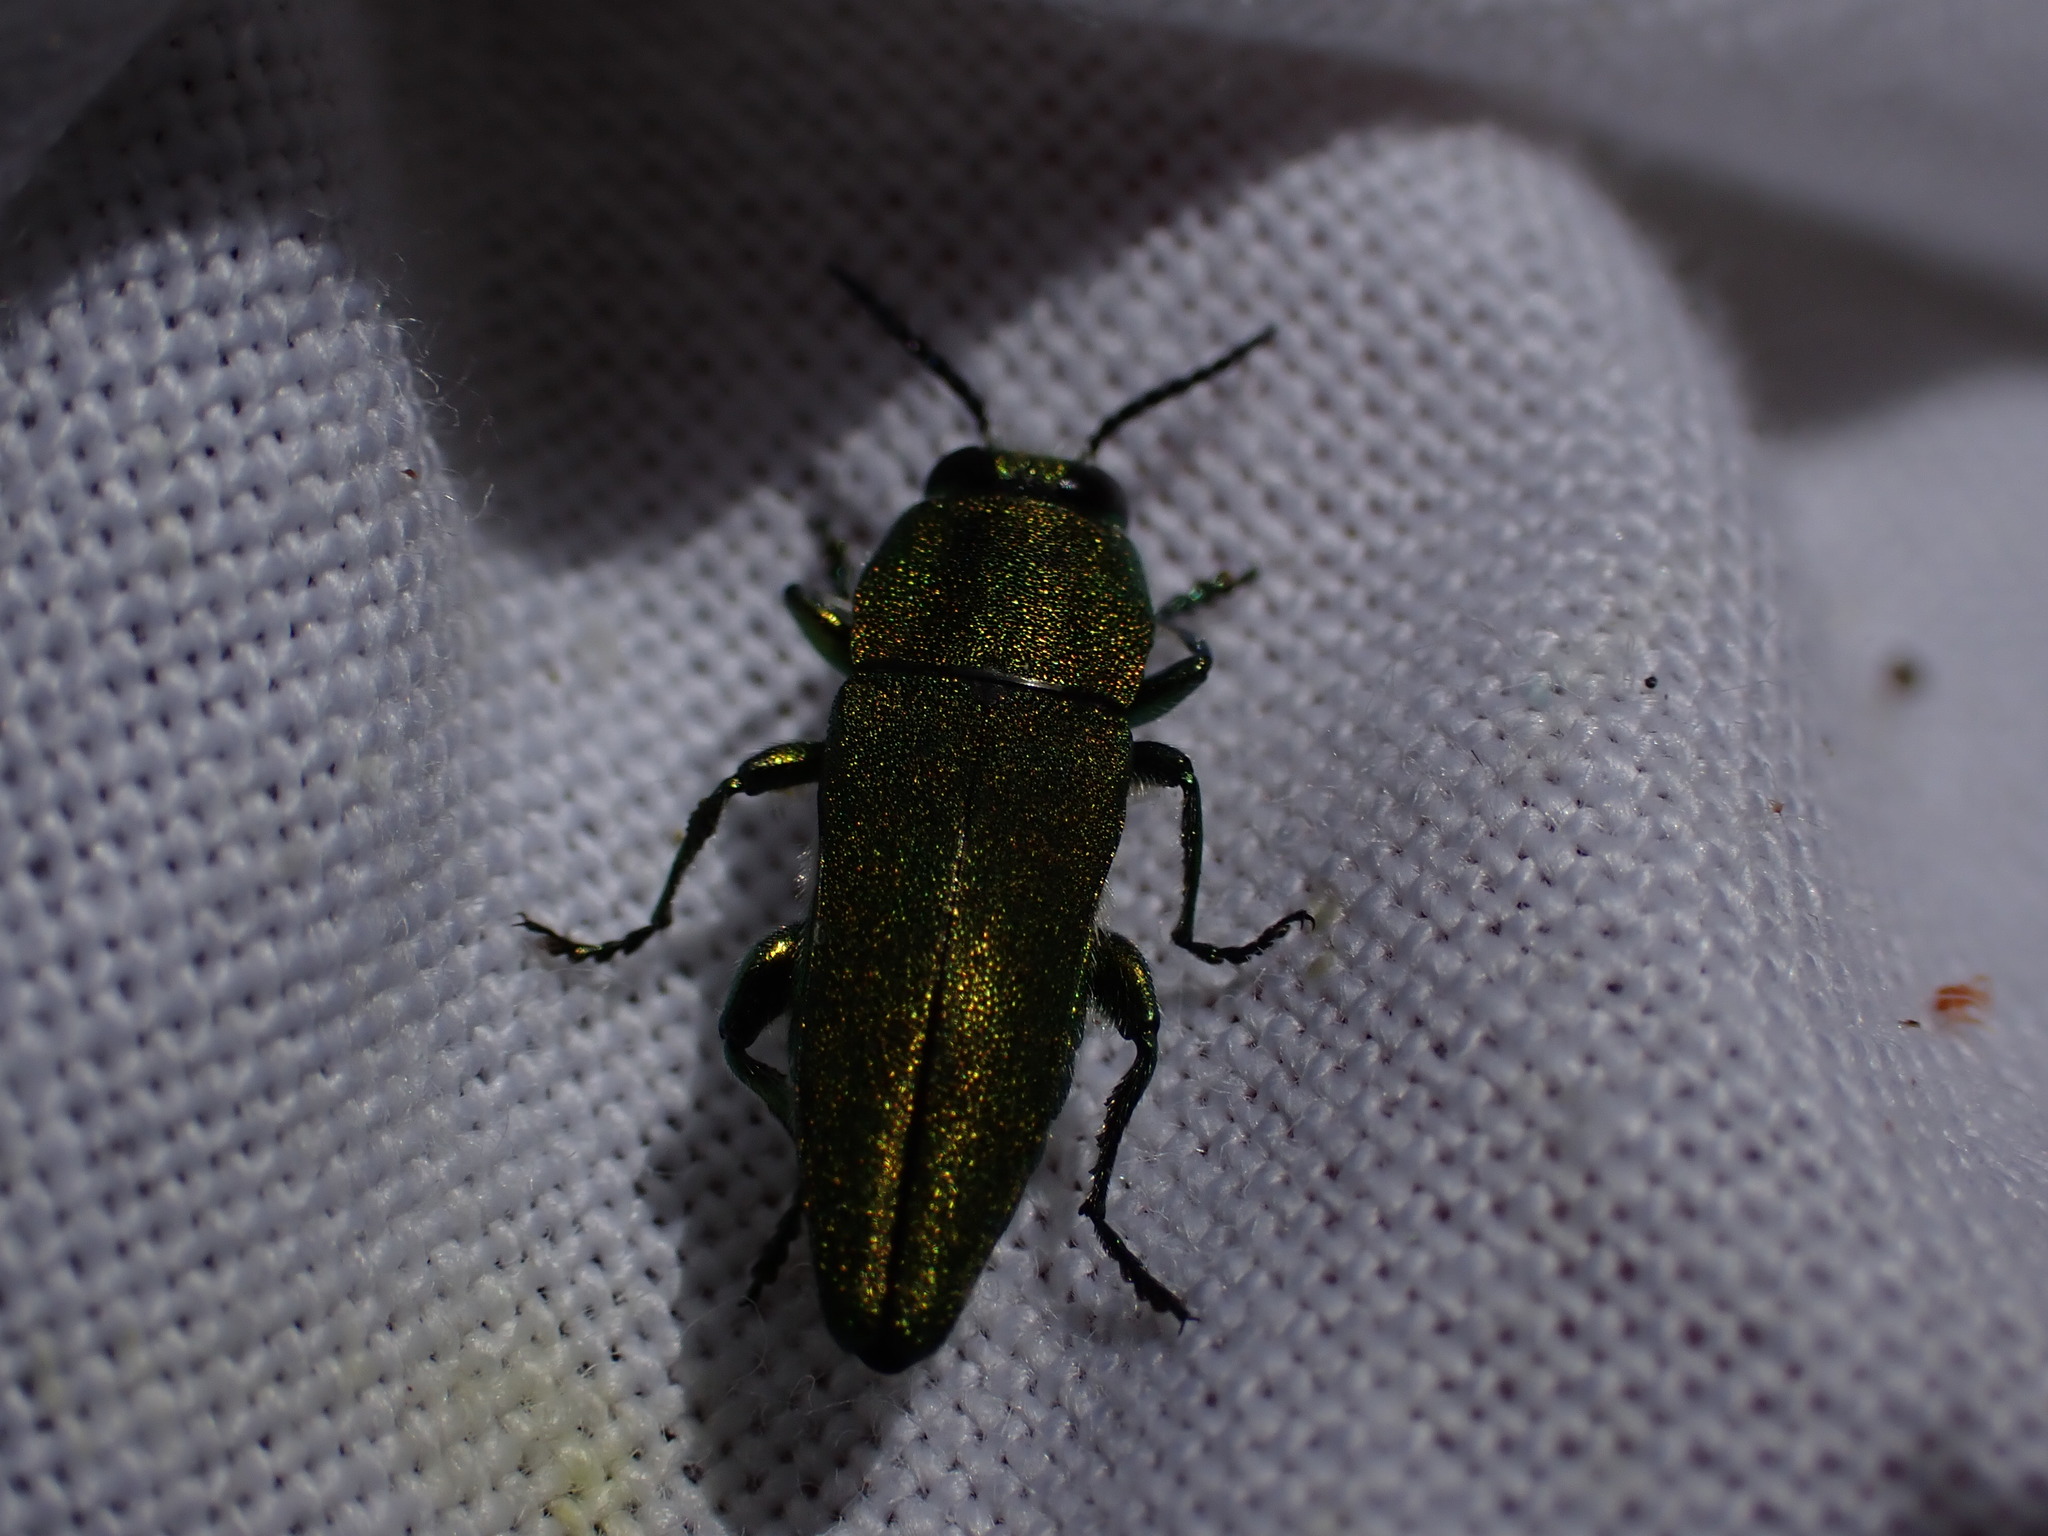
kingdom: Animalia
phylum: Arthropoda
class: Insecta
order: Coleoptera
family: Buprestidae
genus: Anthaxia
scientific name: Anthaxia hungarica
